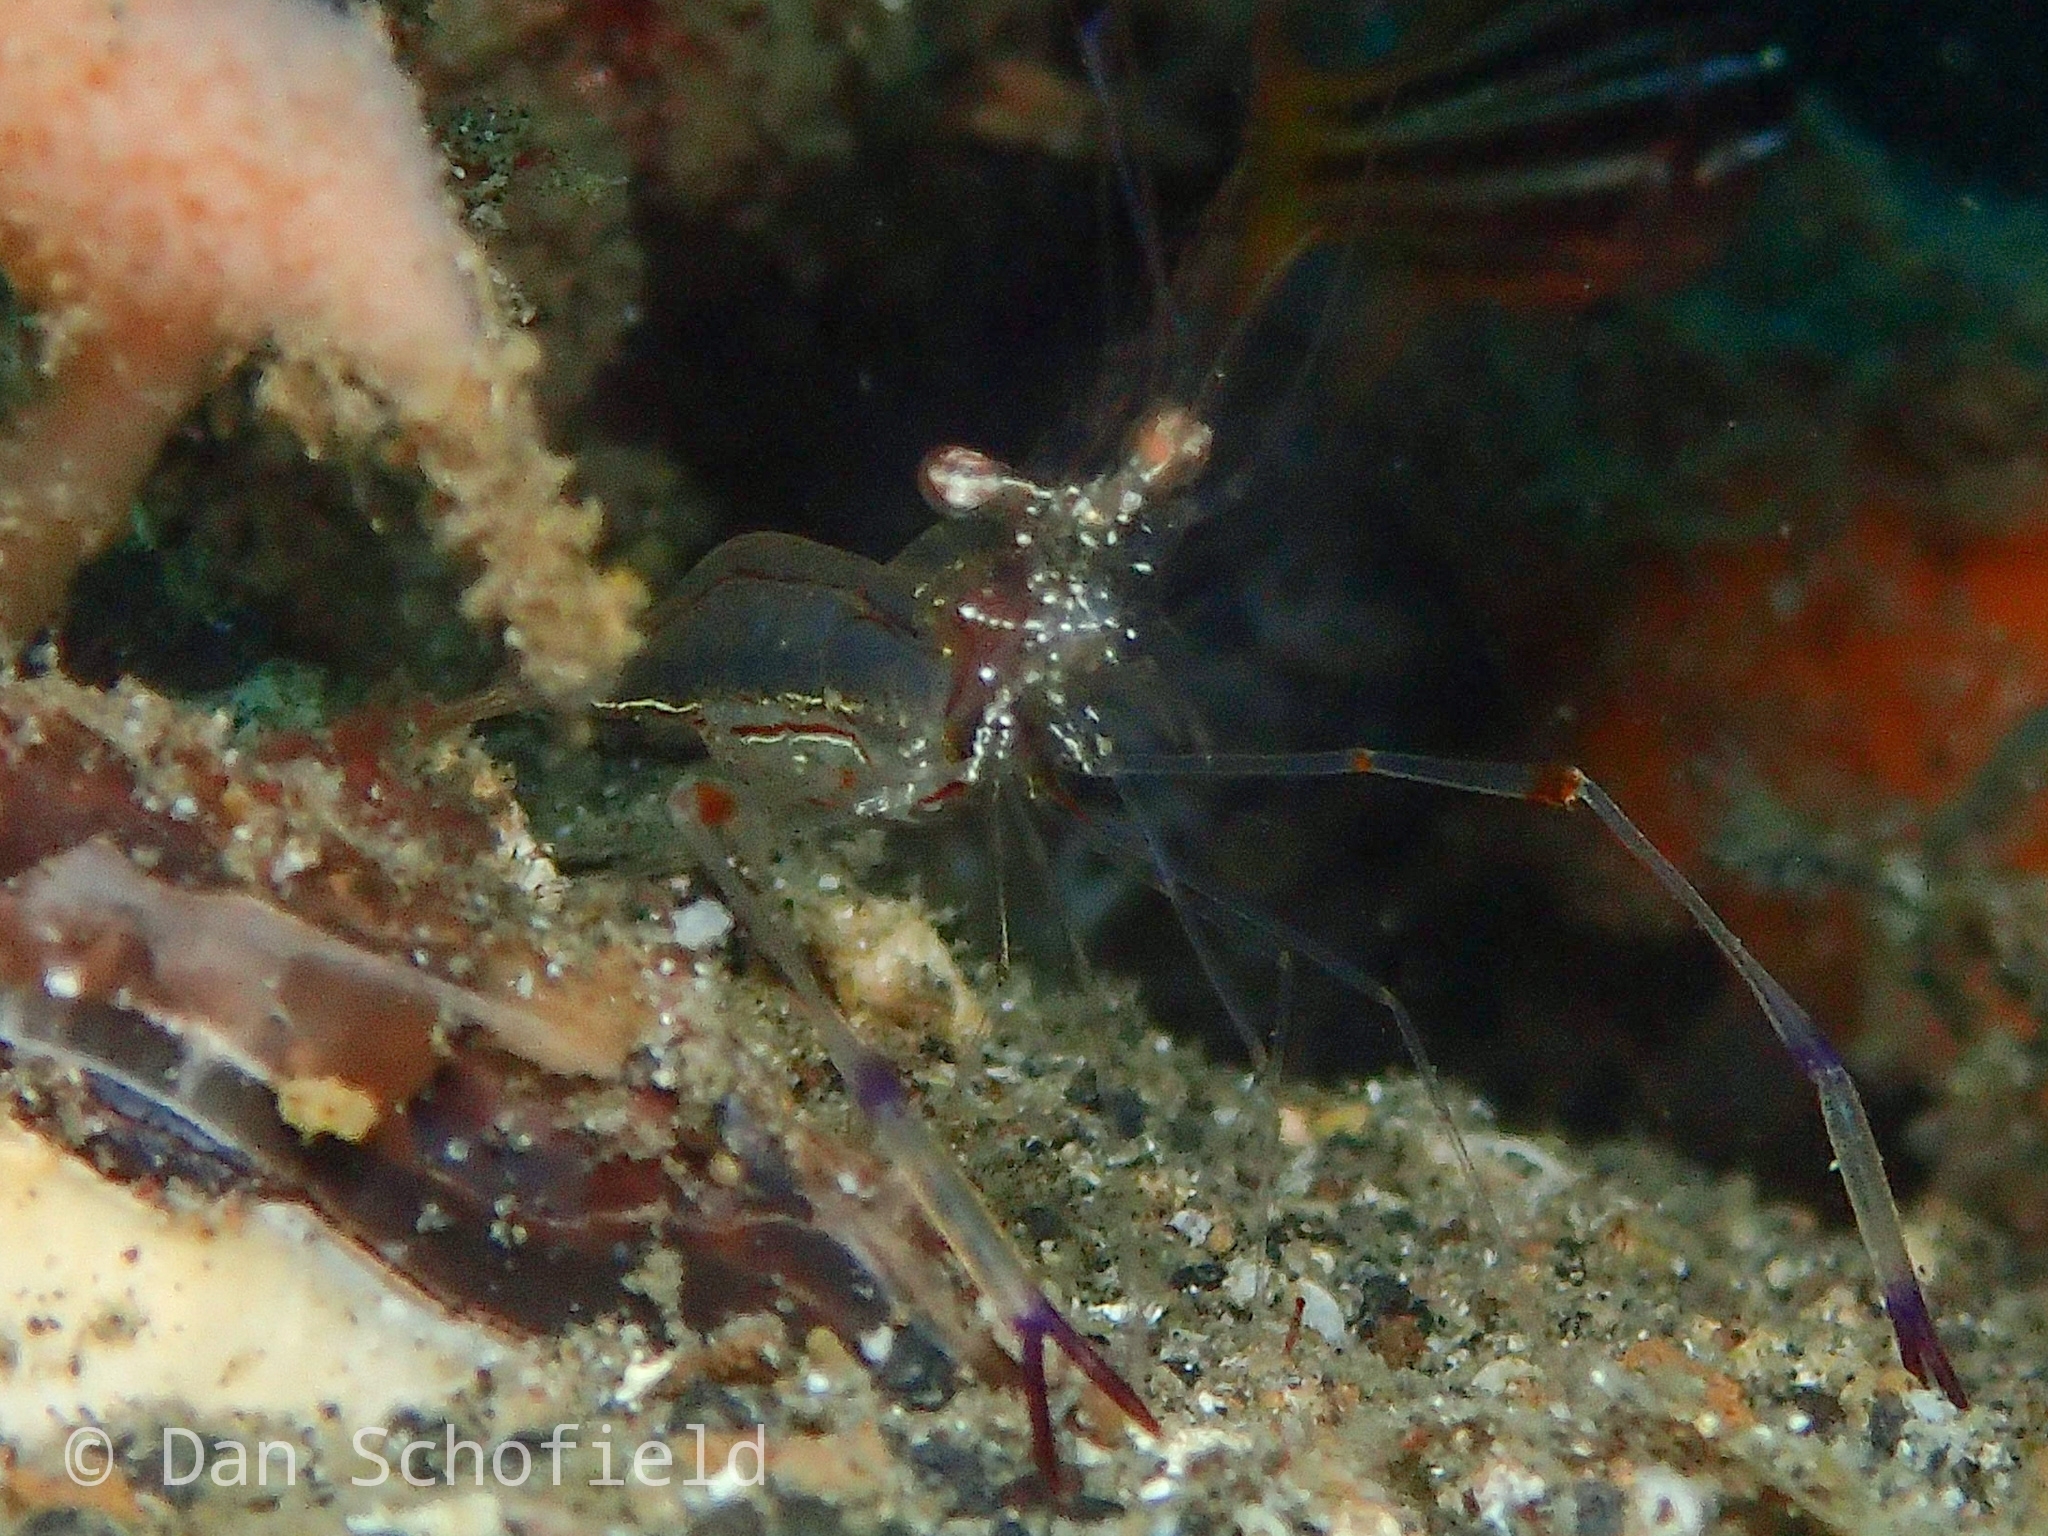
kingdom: Animalia
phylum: Arthropoda
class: Malacostraca
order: Decapoda
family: Palaemonidae
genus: Cuapetes
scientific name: Cuapetes tenuipes
